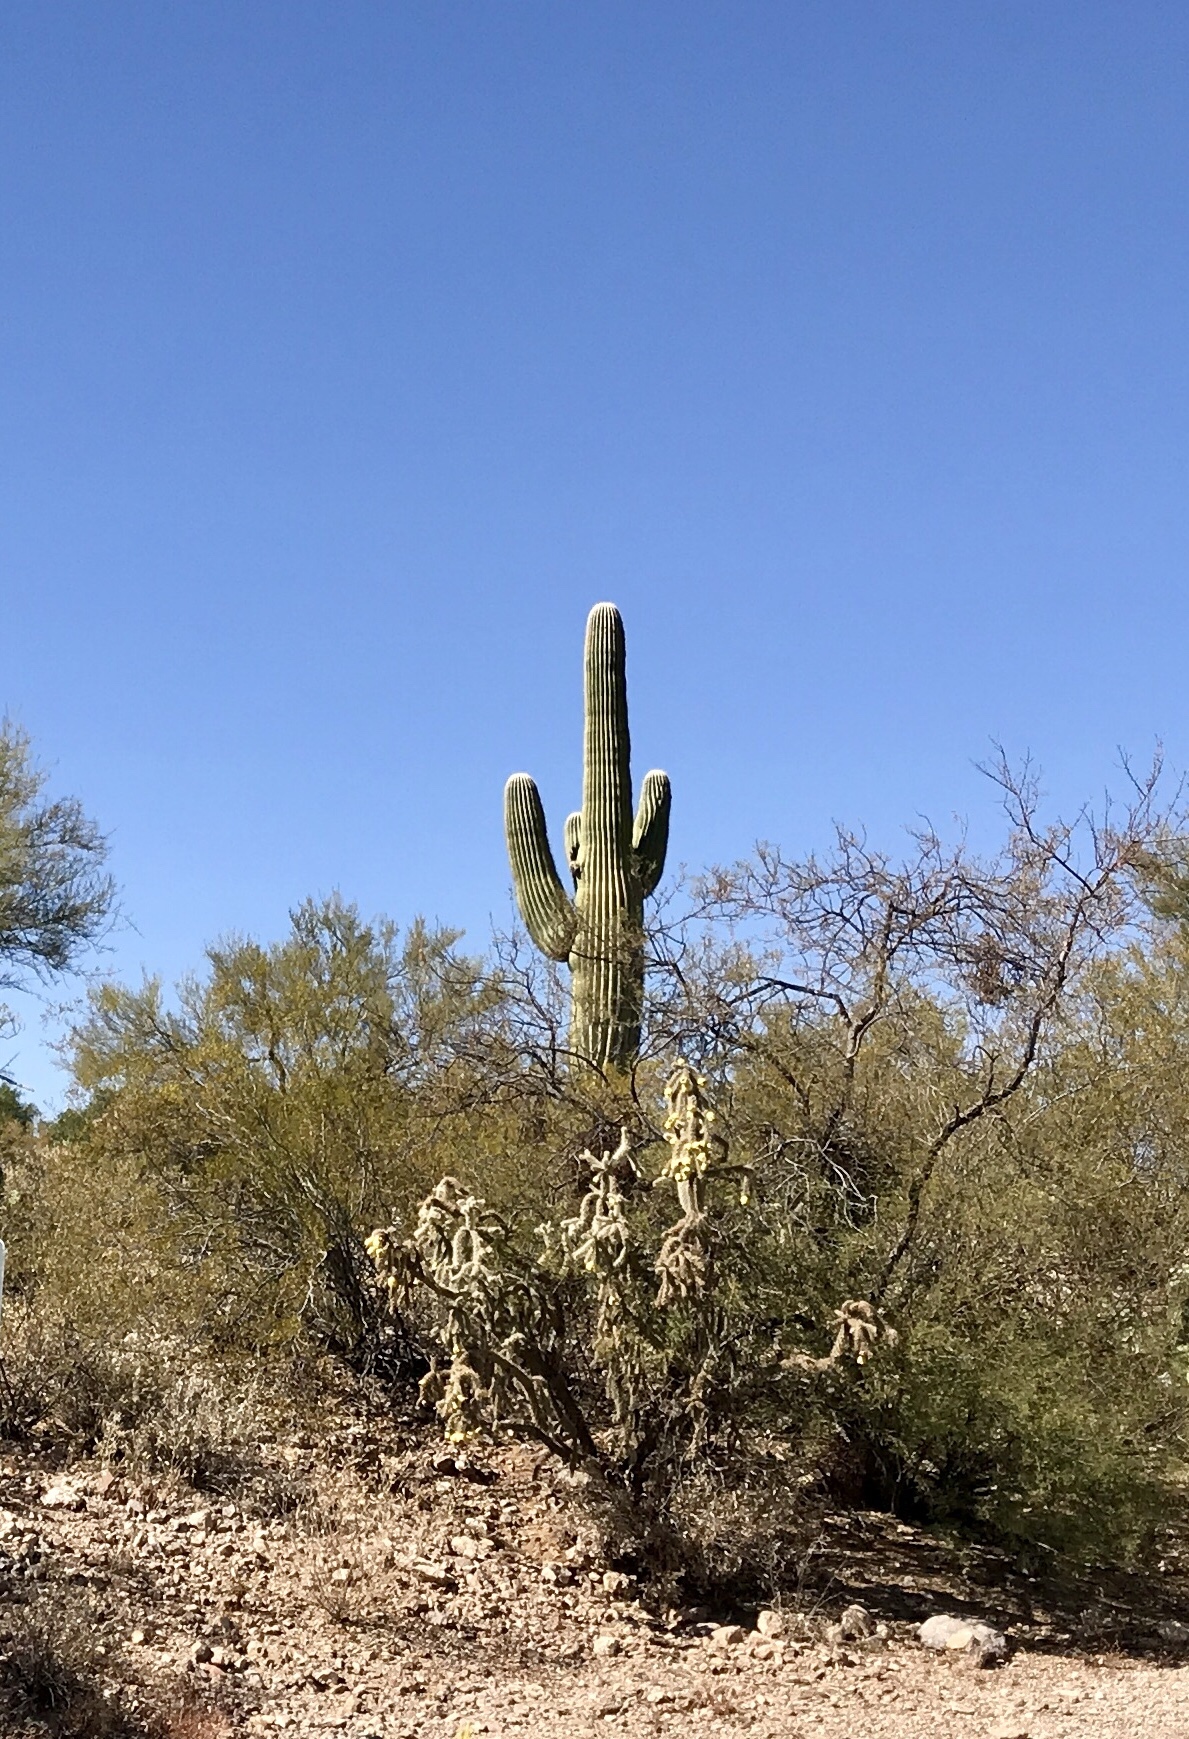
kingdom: Plantae
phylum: Tracheophyta
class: Magnoliopsida
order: Caryophyllales
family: Cactaceae
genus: Carnegiea
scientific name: Carnegiea gigantea
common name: Saguaro
